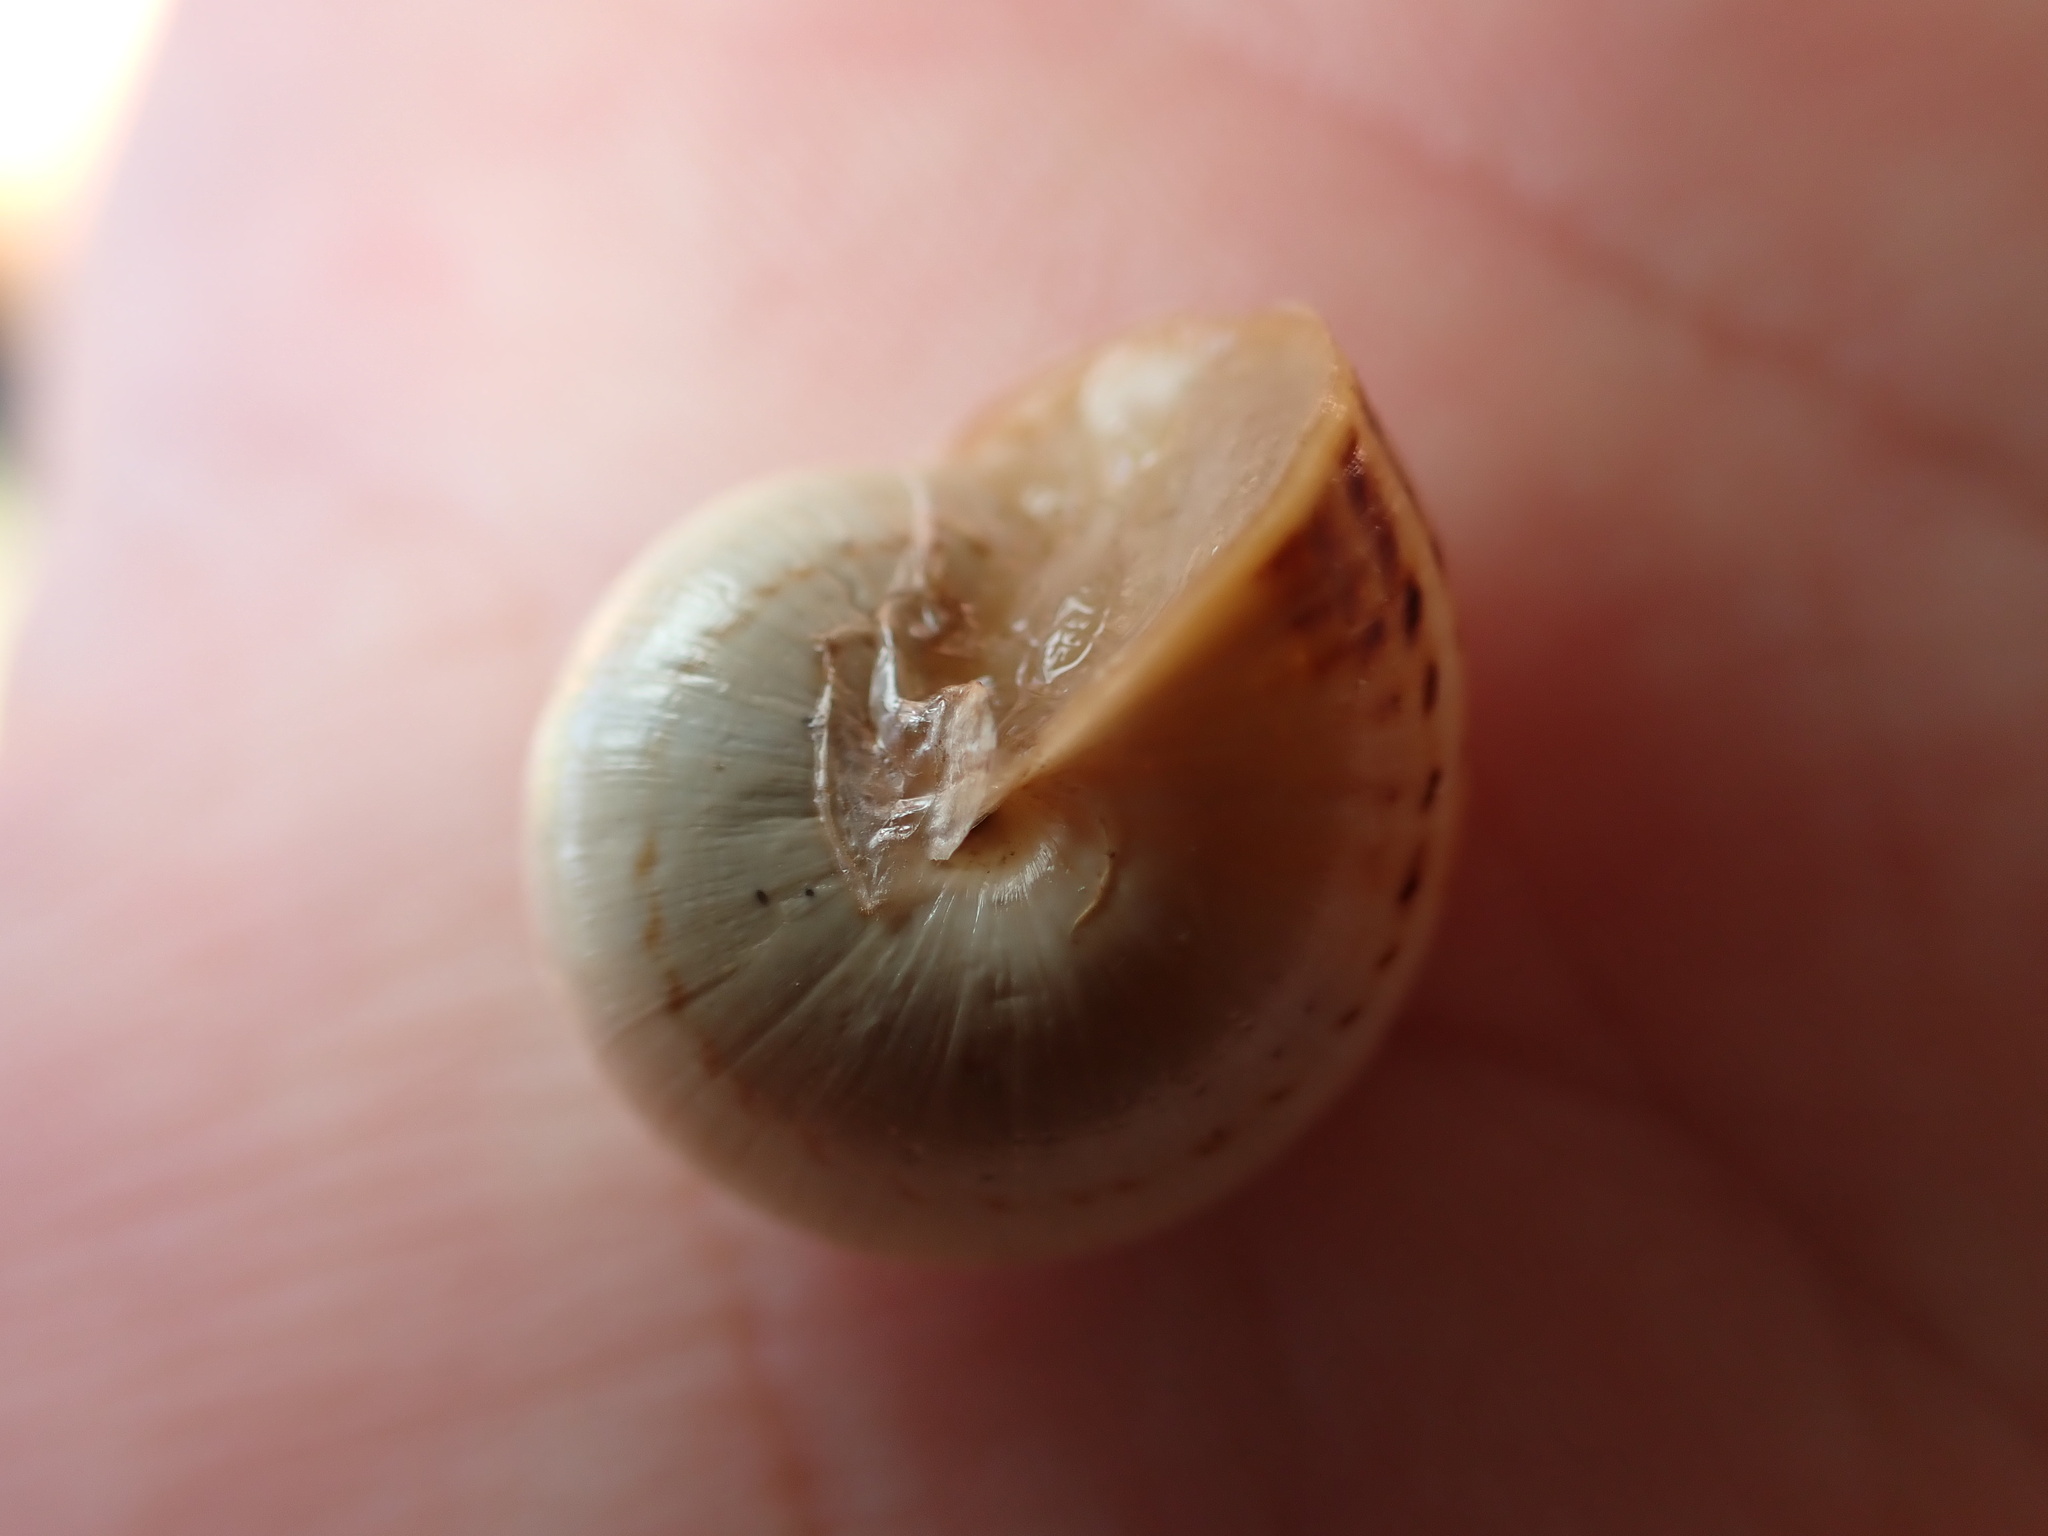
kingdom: Animalia
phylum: Mollusca
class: Gastropoda
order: Stylommatophora
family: Helicidae
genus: Theba
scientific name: Theba pisana
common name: White snail
